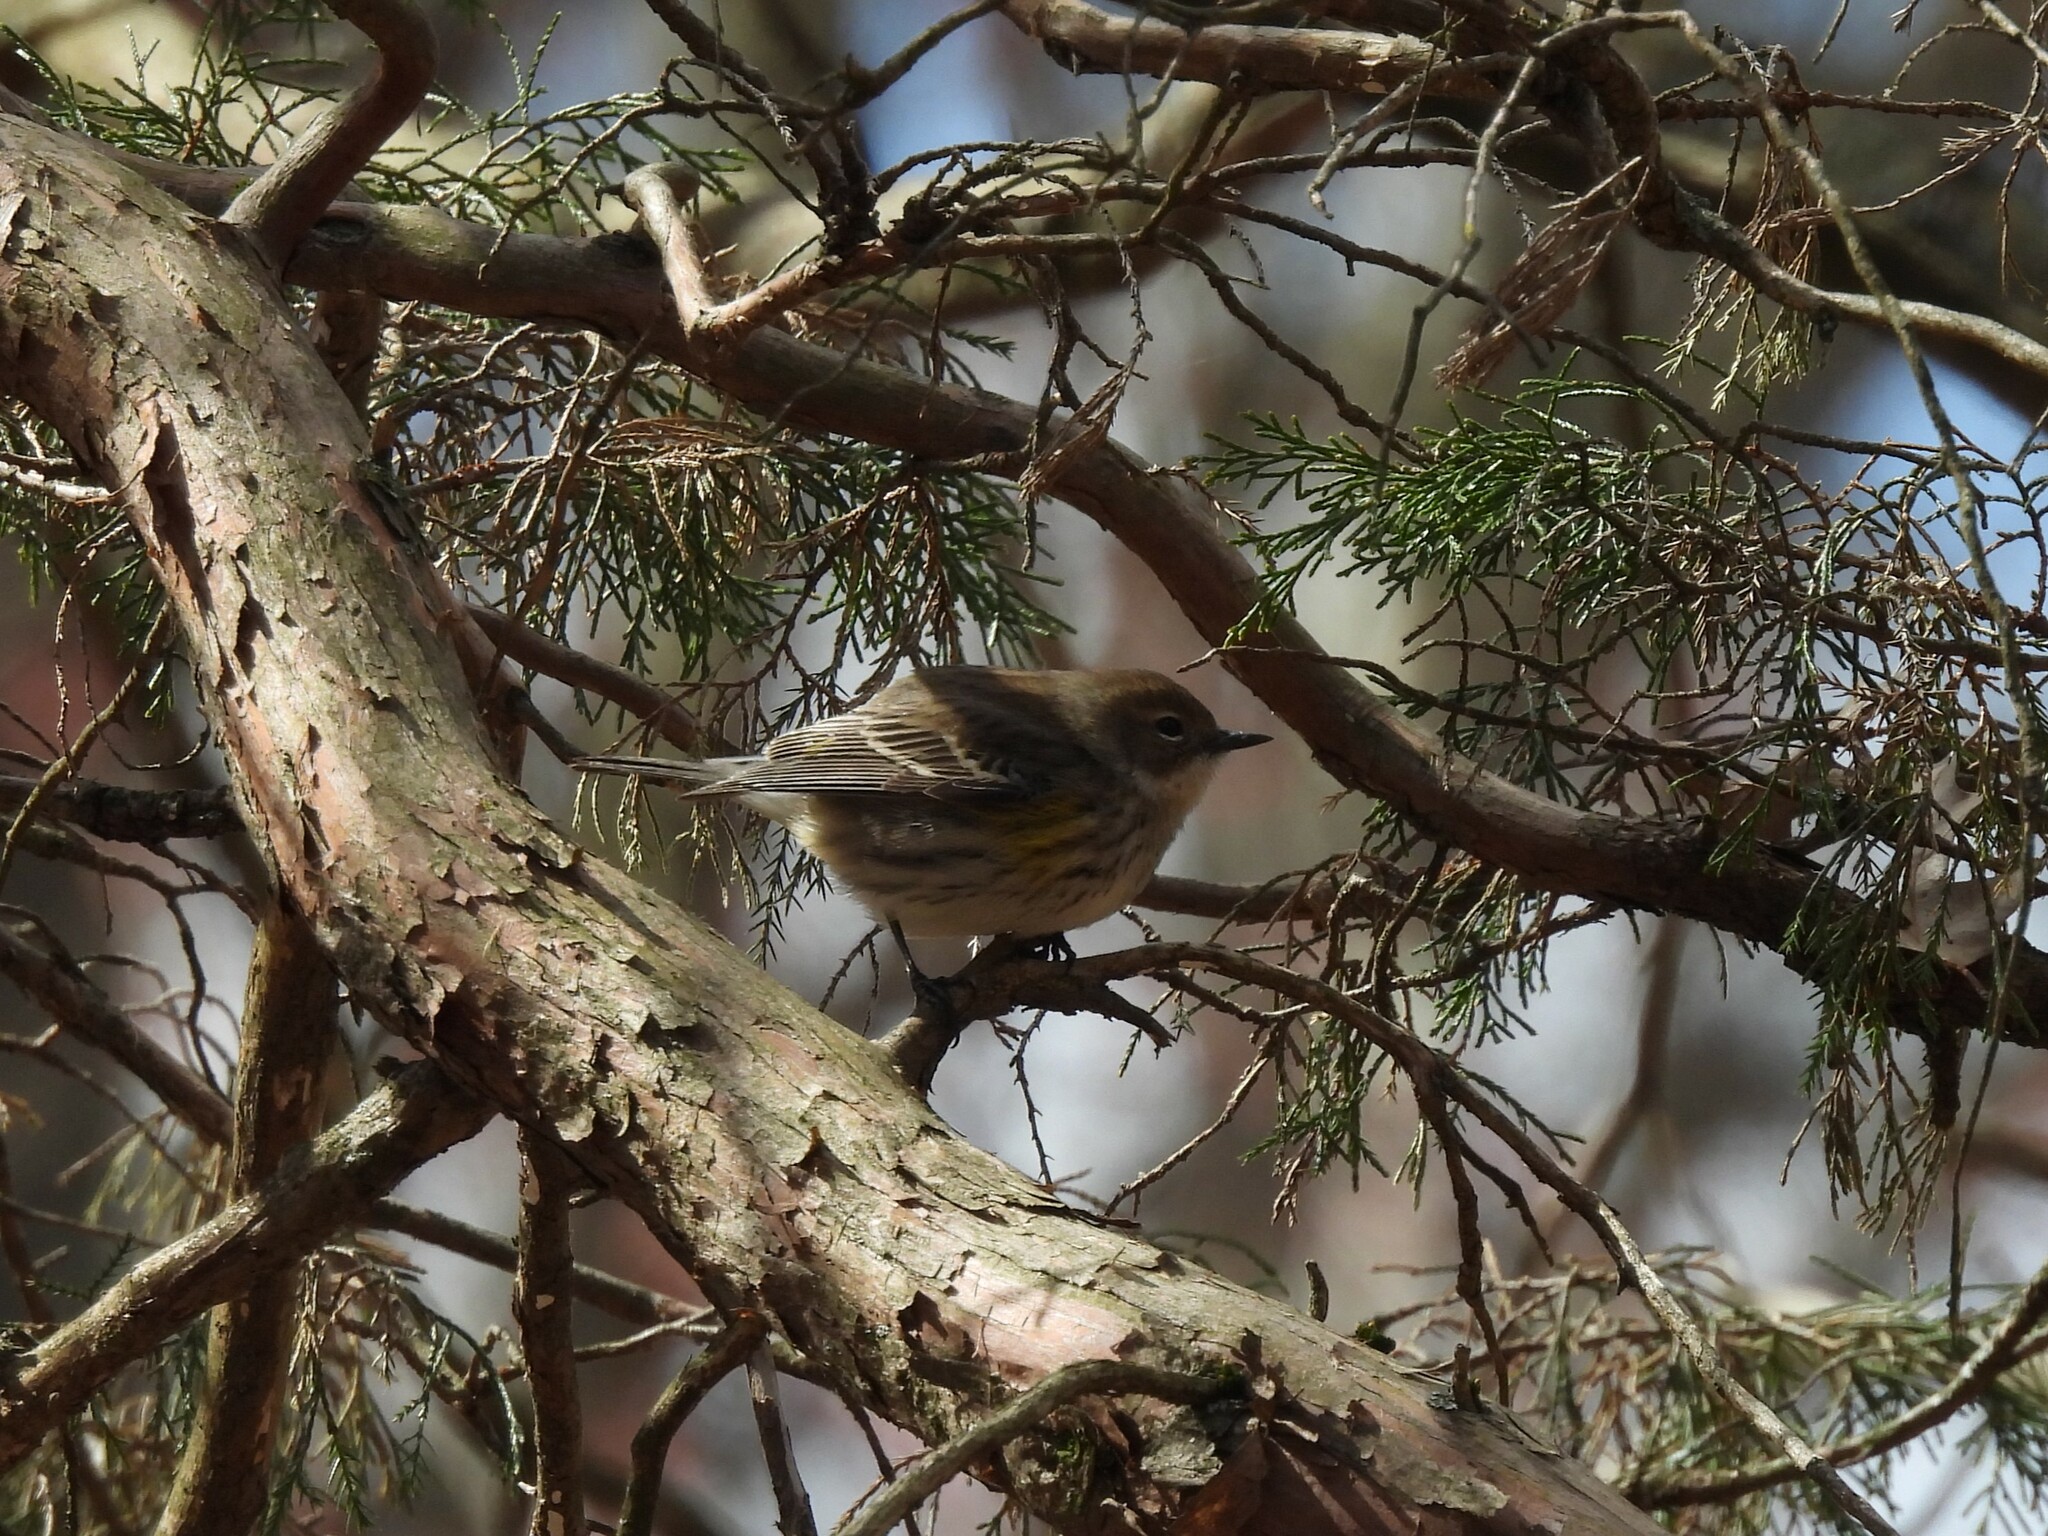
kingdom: Animalia
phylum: Chordata
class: Aves
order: Passeriformes
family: Parulidae
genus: Setophaga
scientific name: Setophaga coronata
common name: Myrtle warbler
